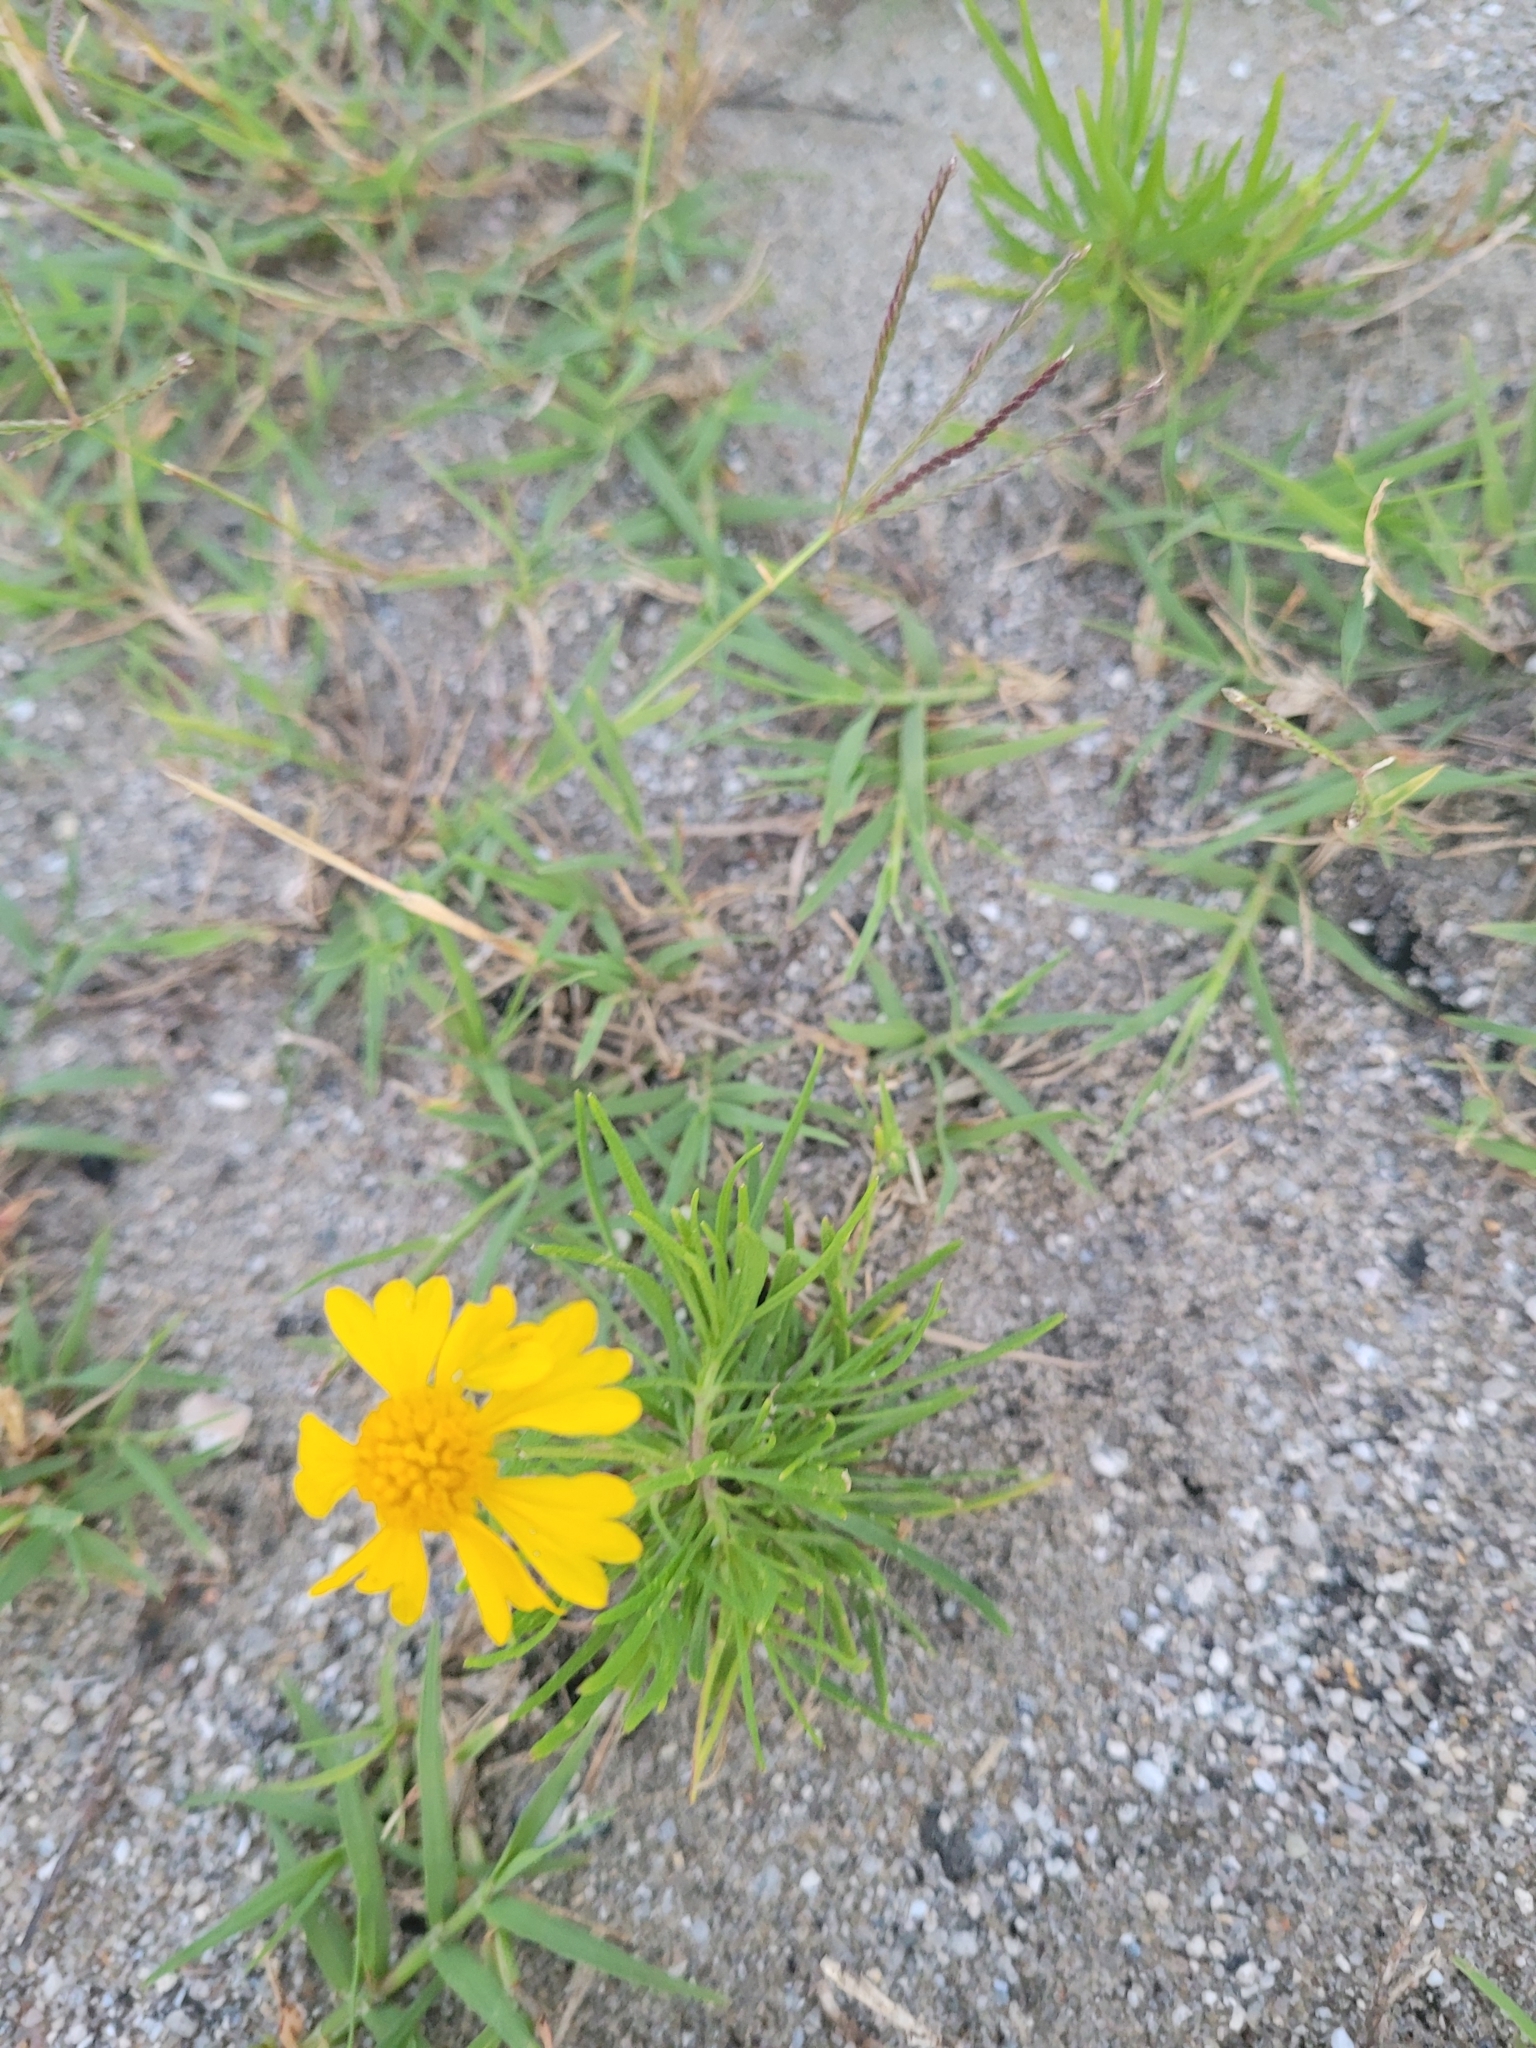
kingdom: Plantae
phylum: Tracheophyta
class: Magnoliopsida
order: Asterales
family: Asteraceae
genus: Helenium
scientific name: Helenium amarum
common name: Bitter sneezeweed
